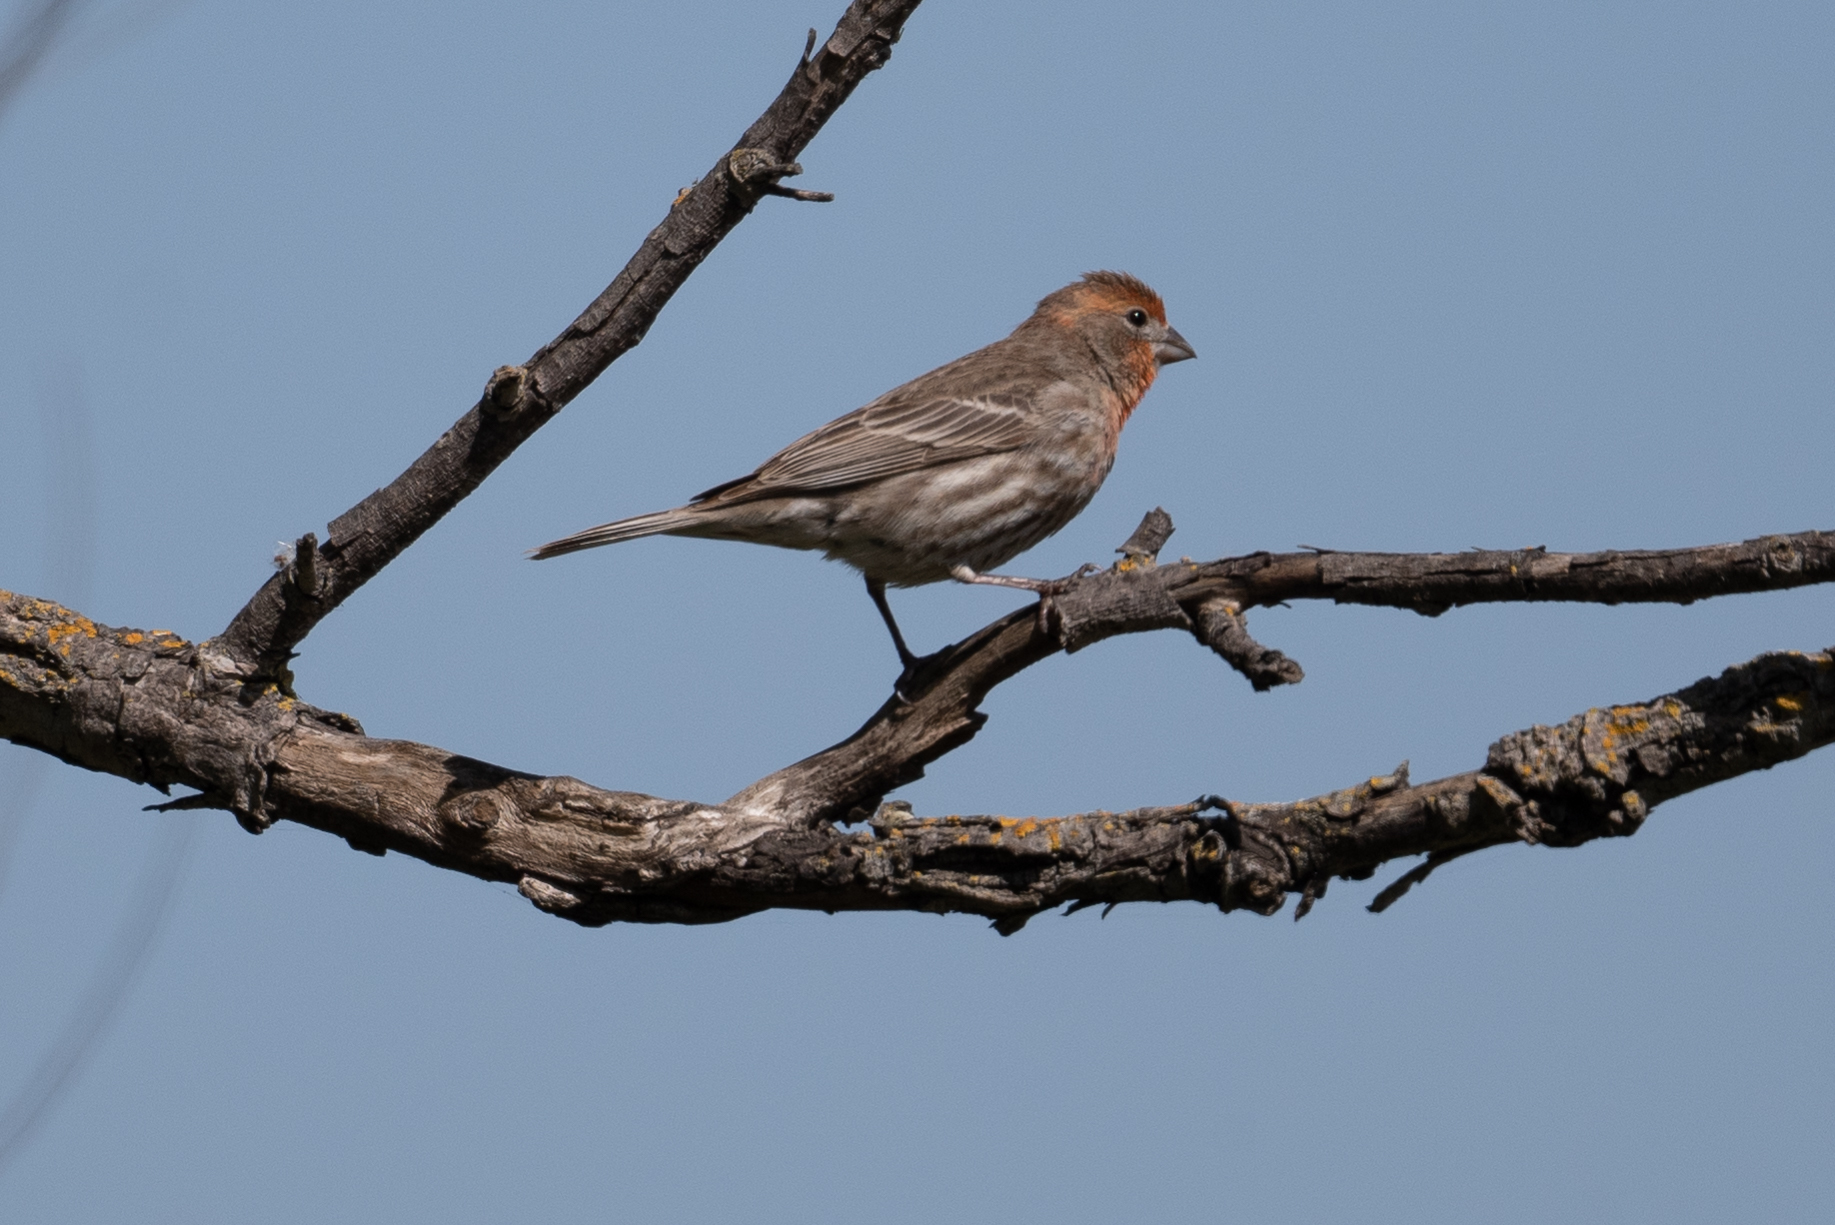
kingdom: Animalia
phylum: Chordata
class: Aves
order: Passeriformes
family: Fringillidae
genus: Haemorhous
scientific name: Haemorhous mexicanus
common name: House finch
